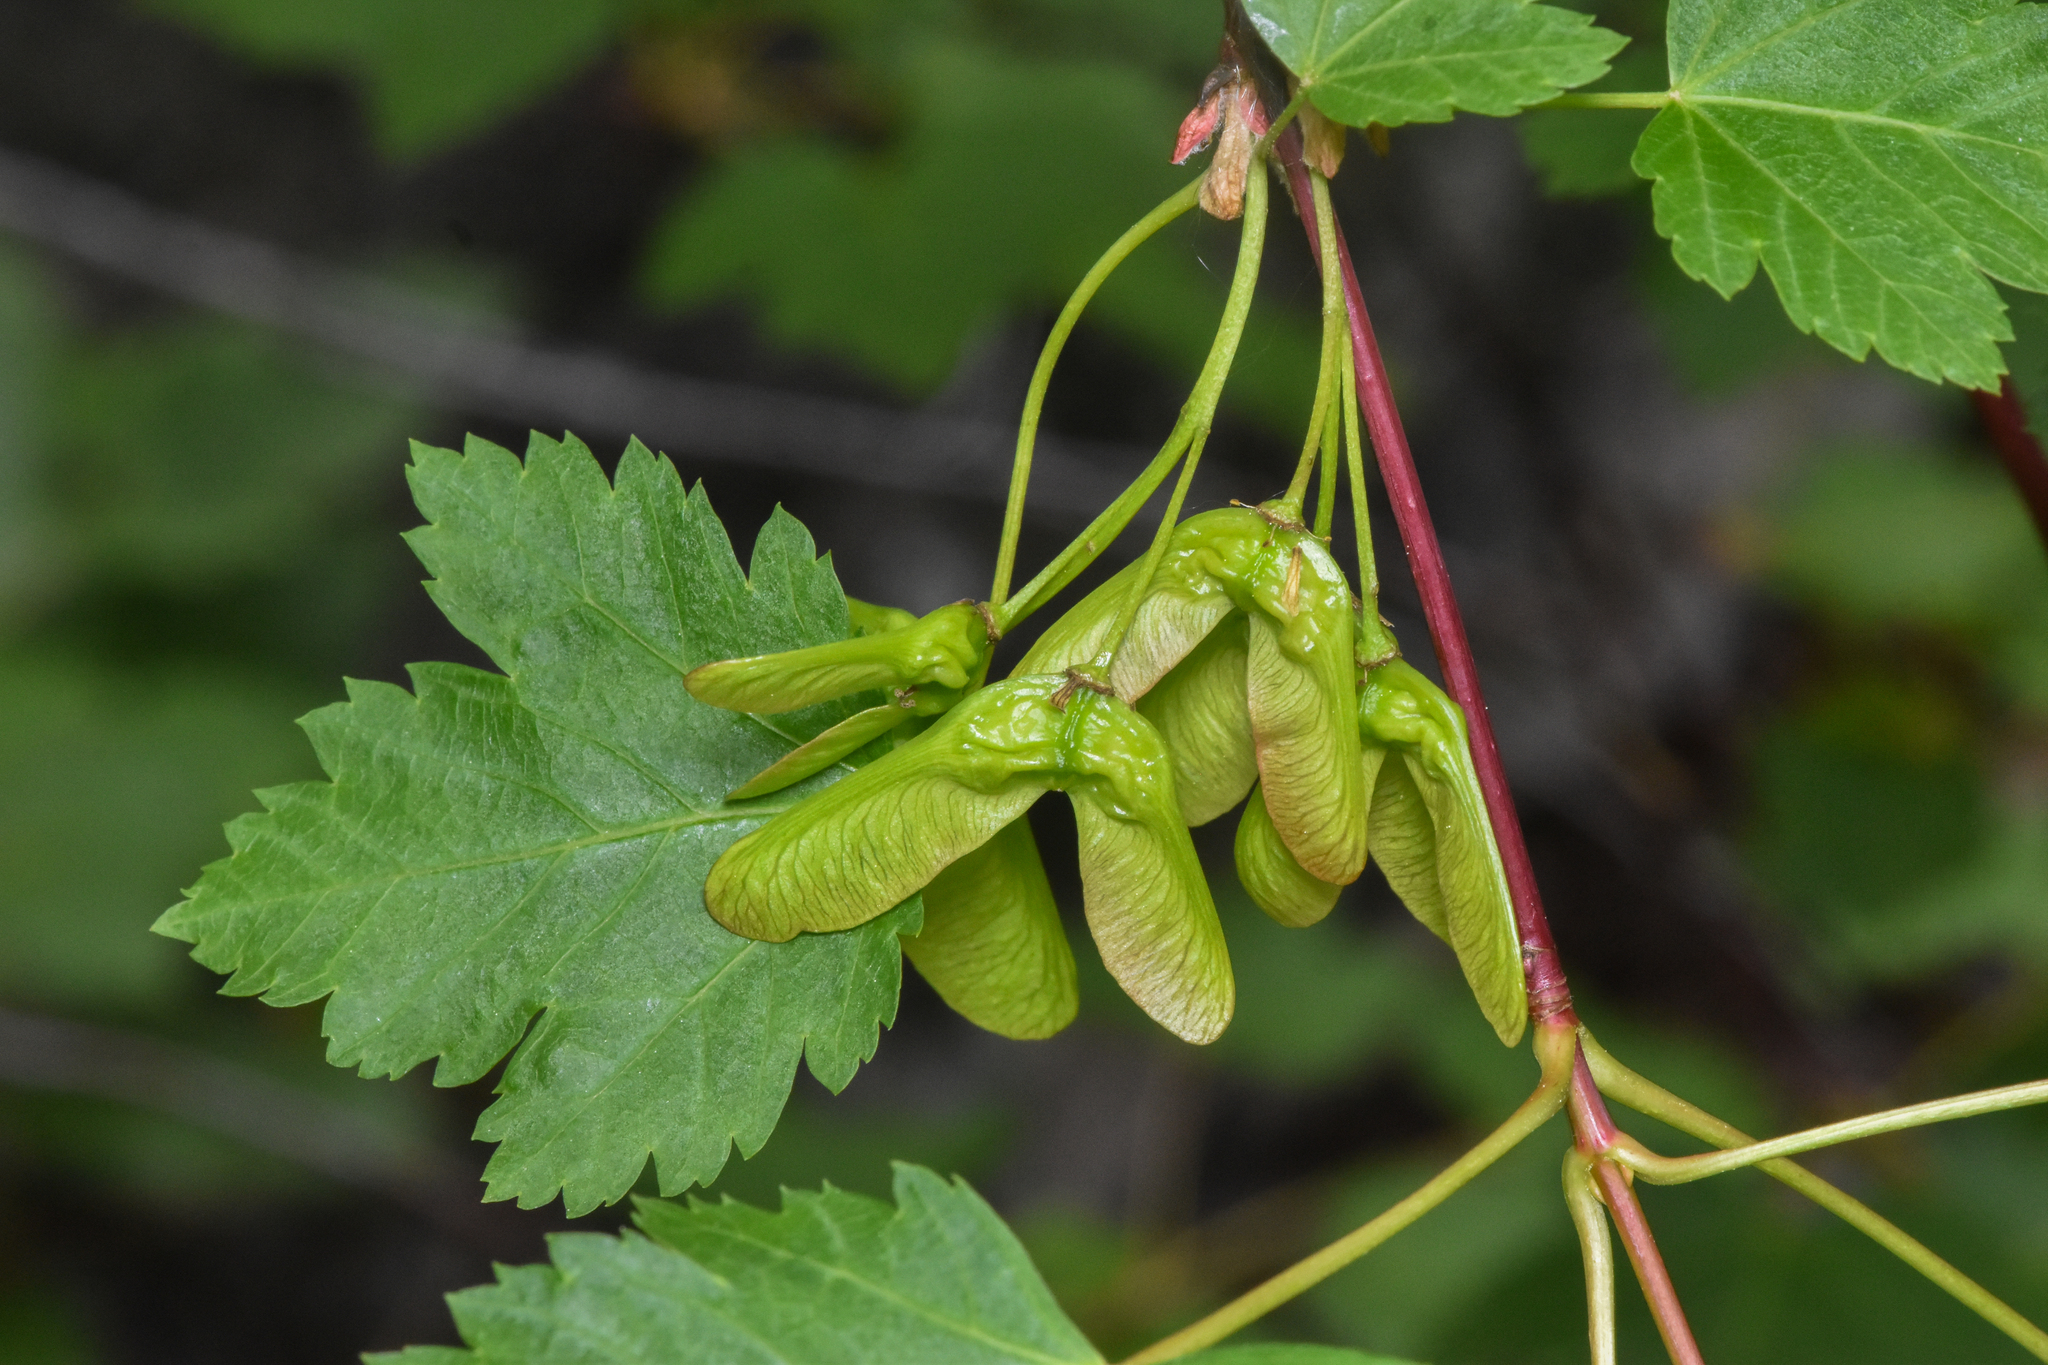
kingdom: Plantae
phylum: Tracheophyta
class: Magnoliopsida
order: Sapindales
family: Sapindaceae
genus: Acer
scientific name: Acer glabrum
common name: Rocky mountain maple
